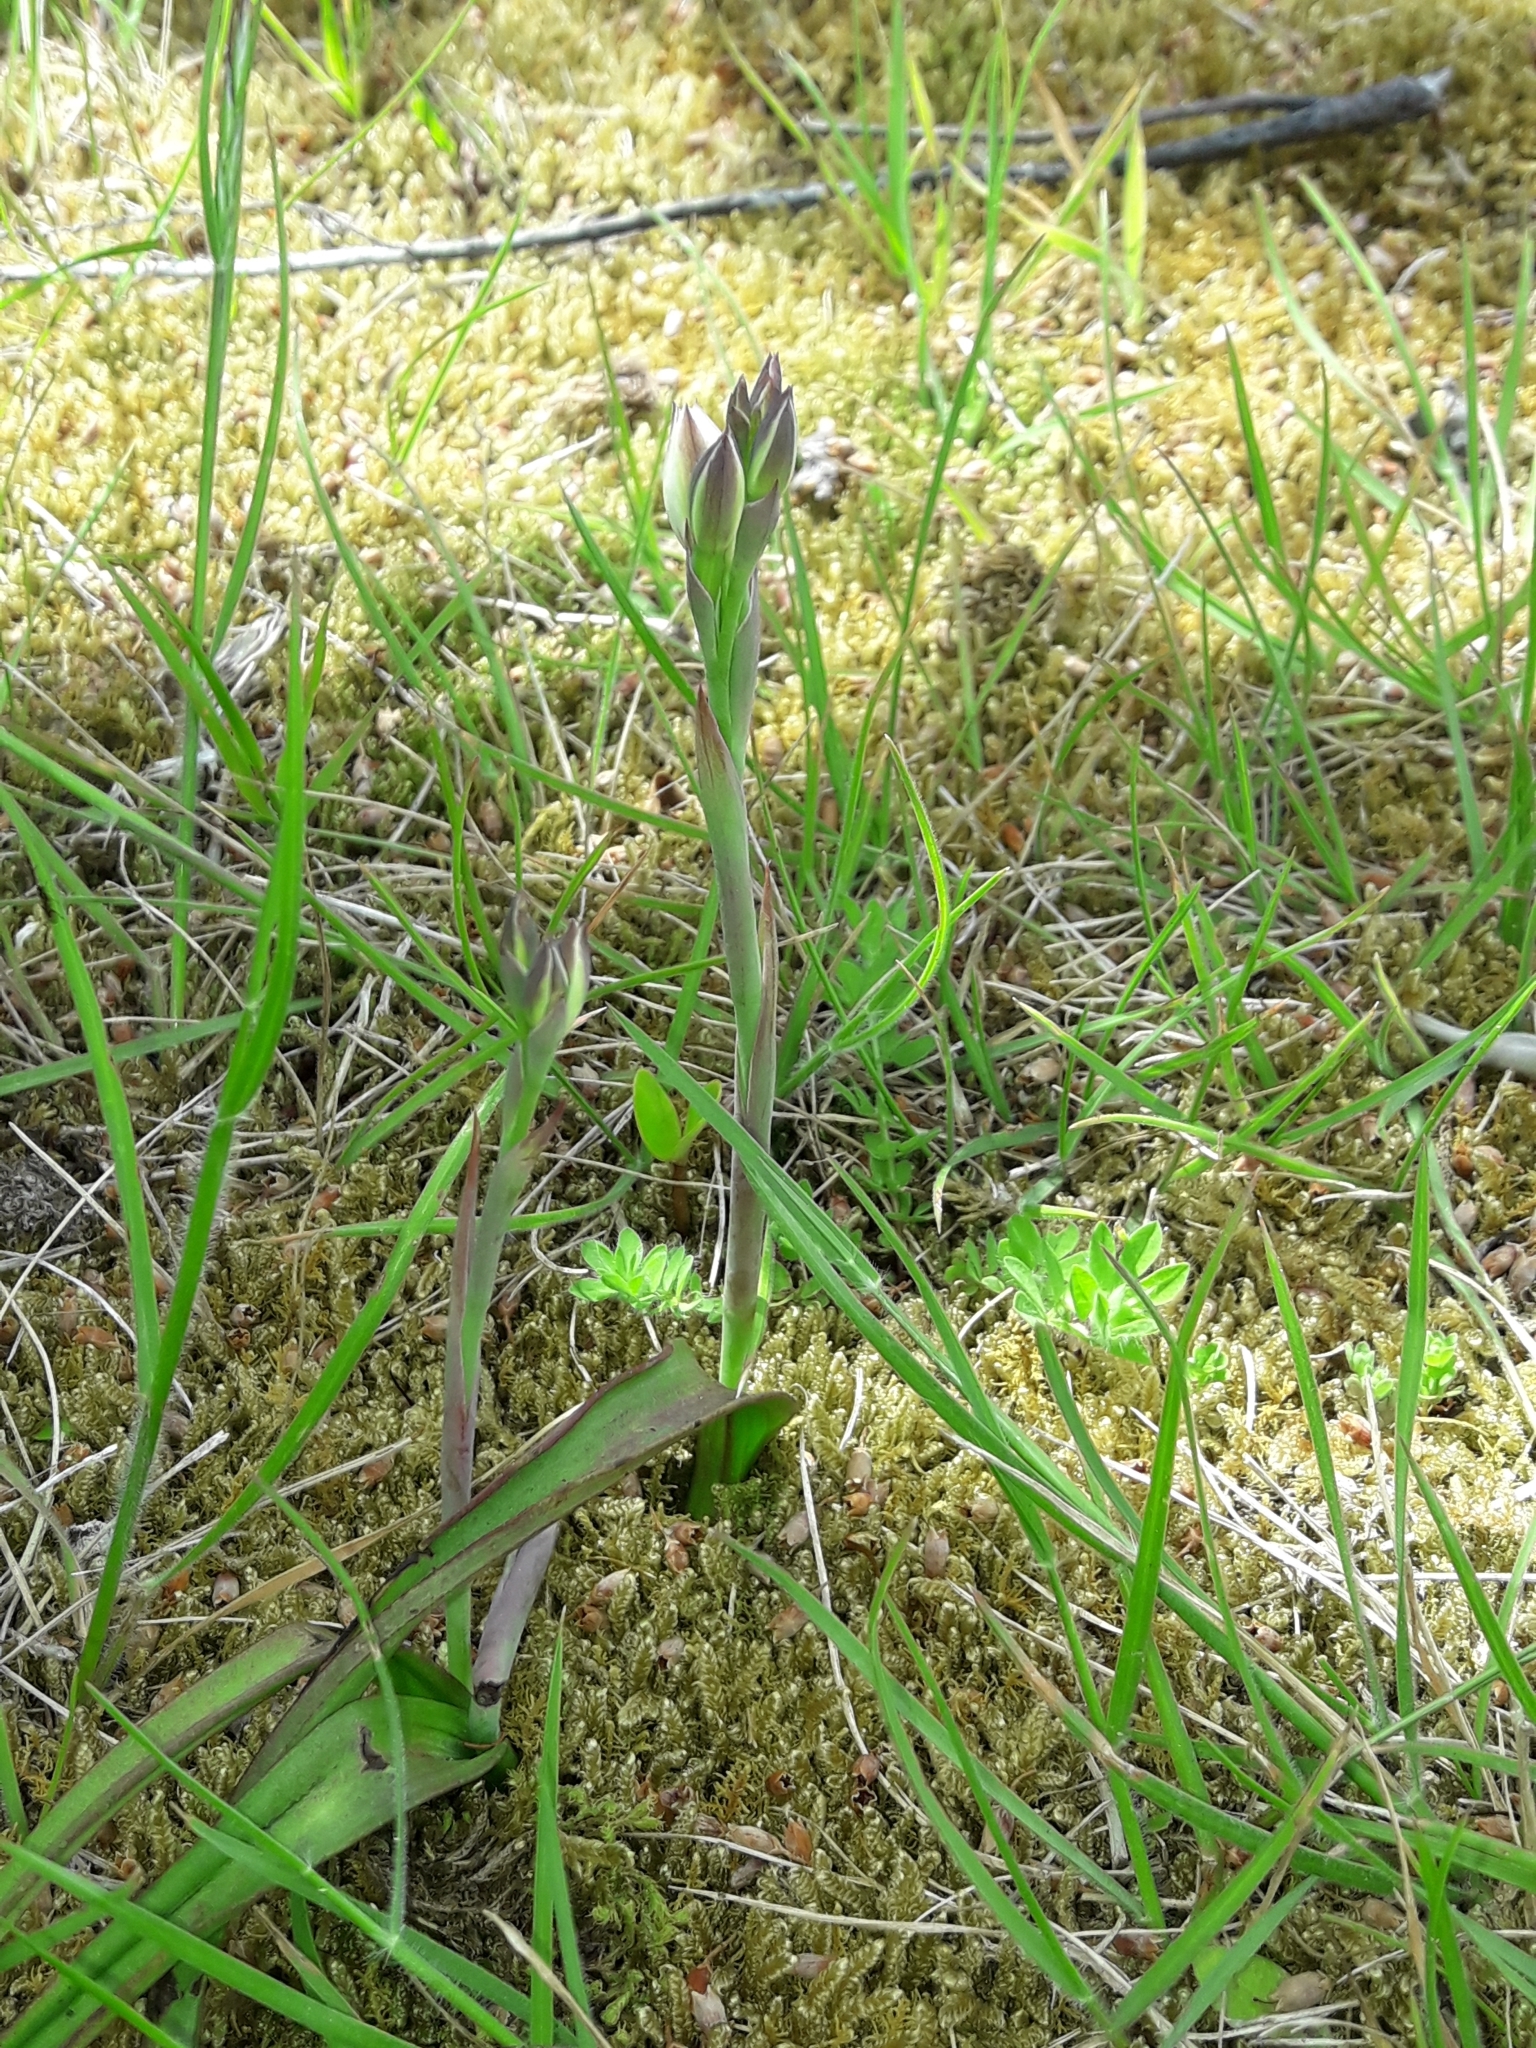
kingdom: Plantae
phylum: Tracheophyta
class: Liliopsida
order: Asparagales
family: Orchidaceae
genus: Thelymitra
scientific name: Thelymitra longifolia
